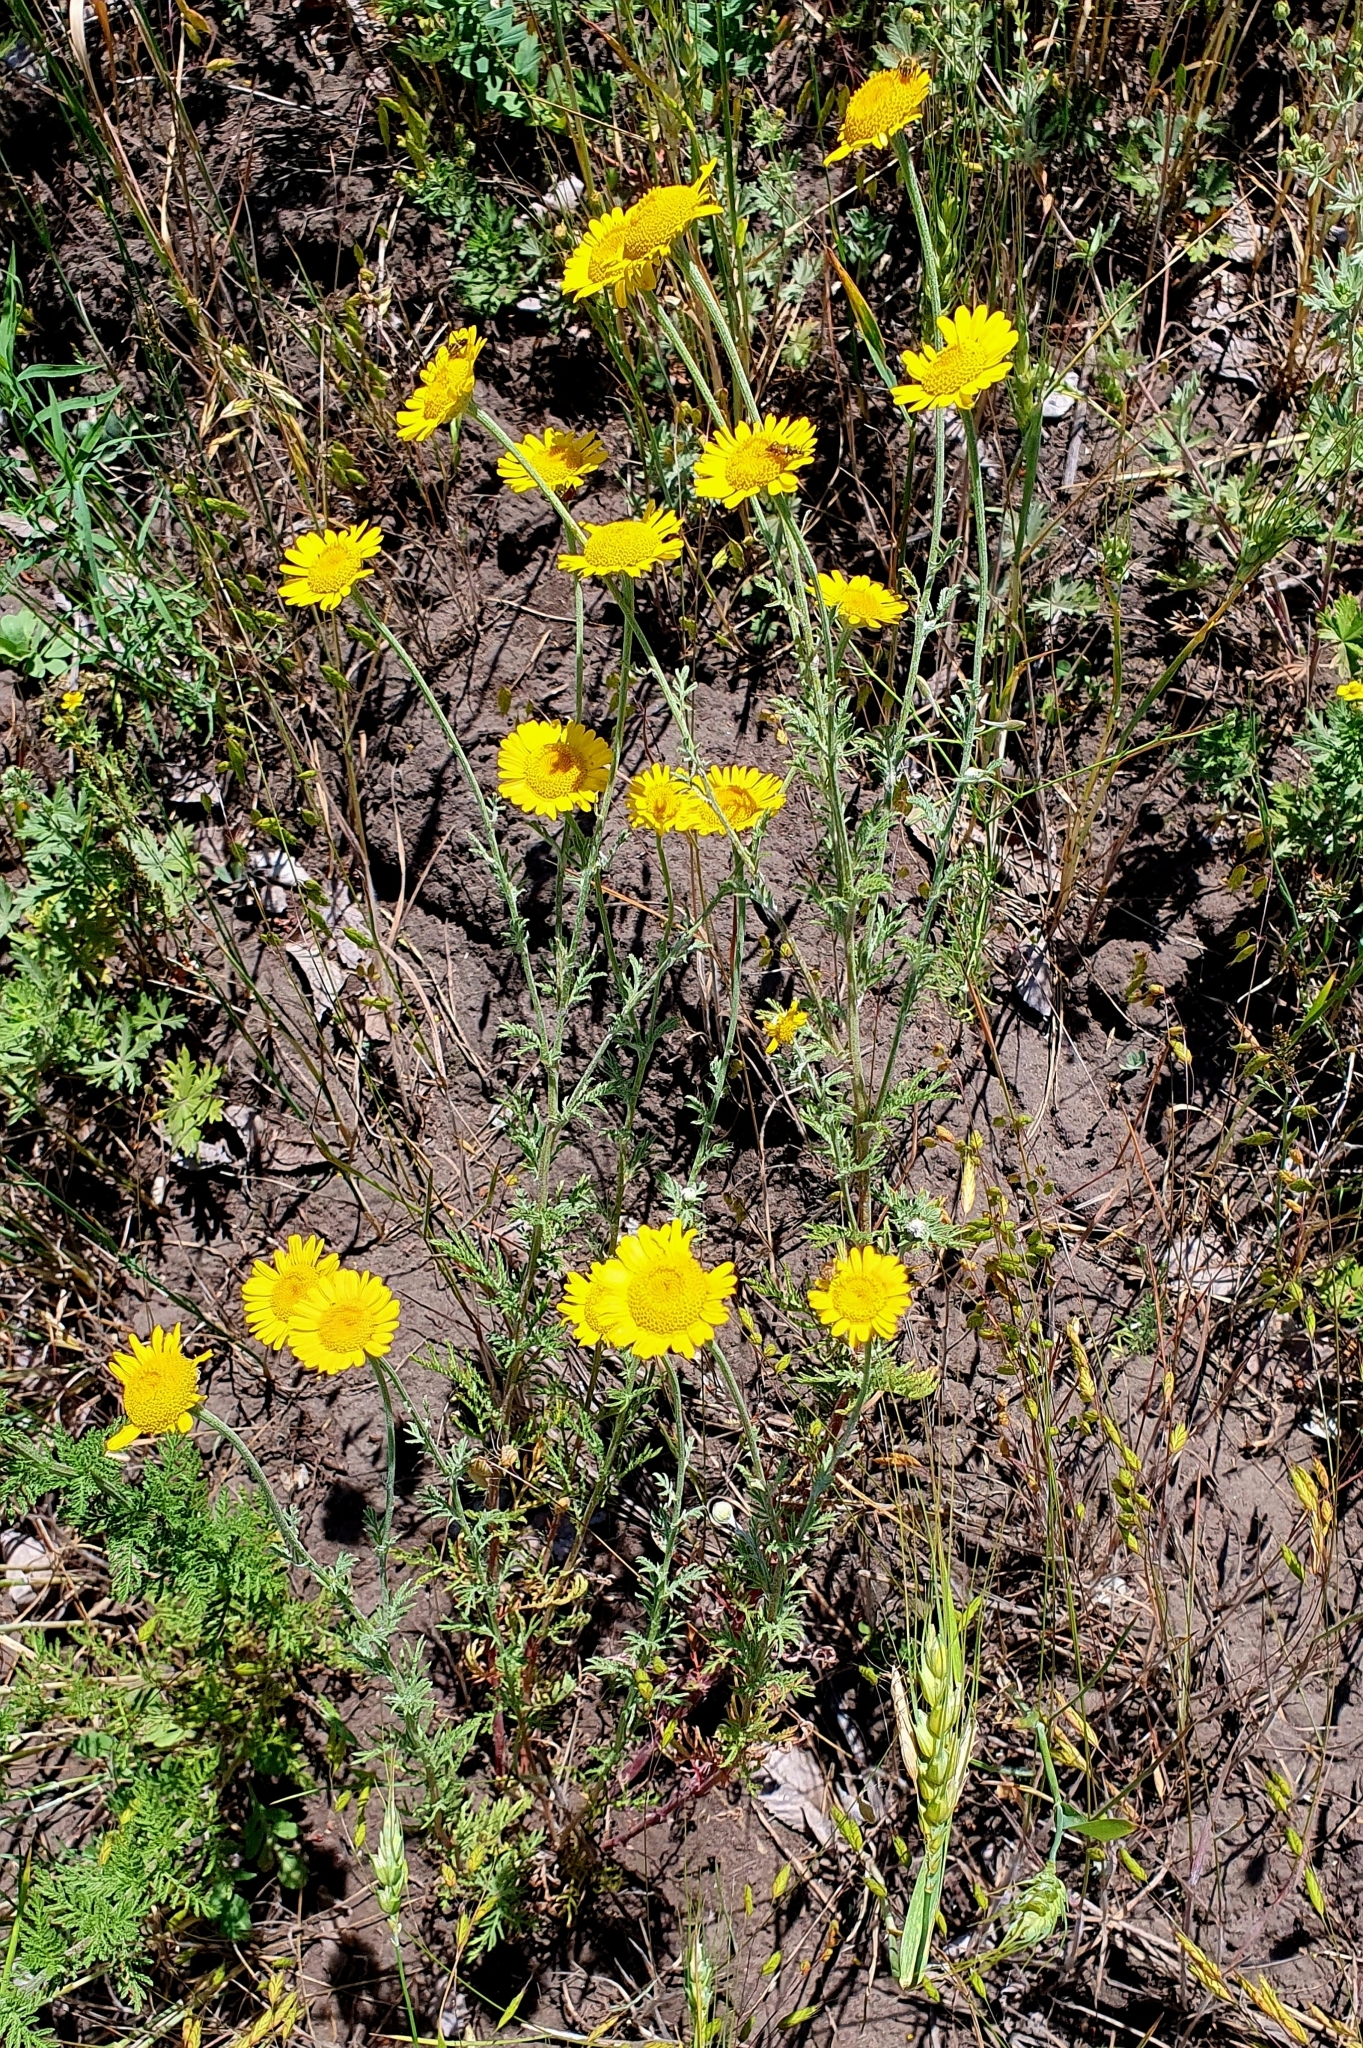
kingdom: Plantae
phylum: Tracheophyta
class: Magnoliopsida
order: Asterales
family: Asteraceae
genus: Cota
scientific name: Cota tinctoria
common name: Golden chamomile
